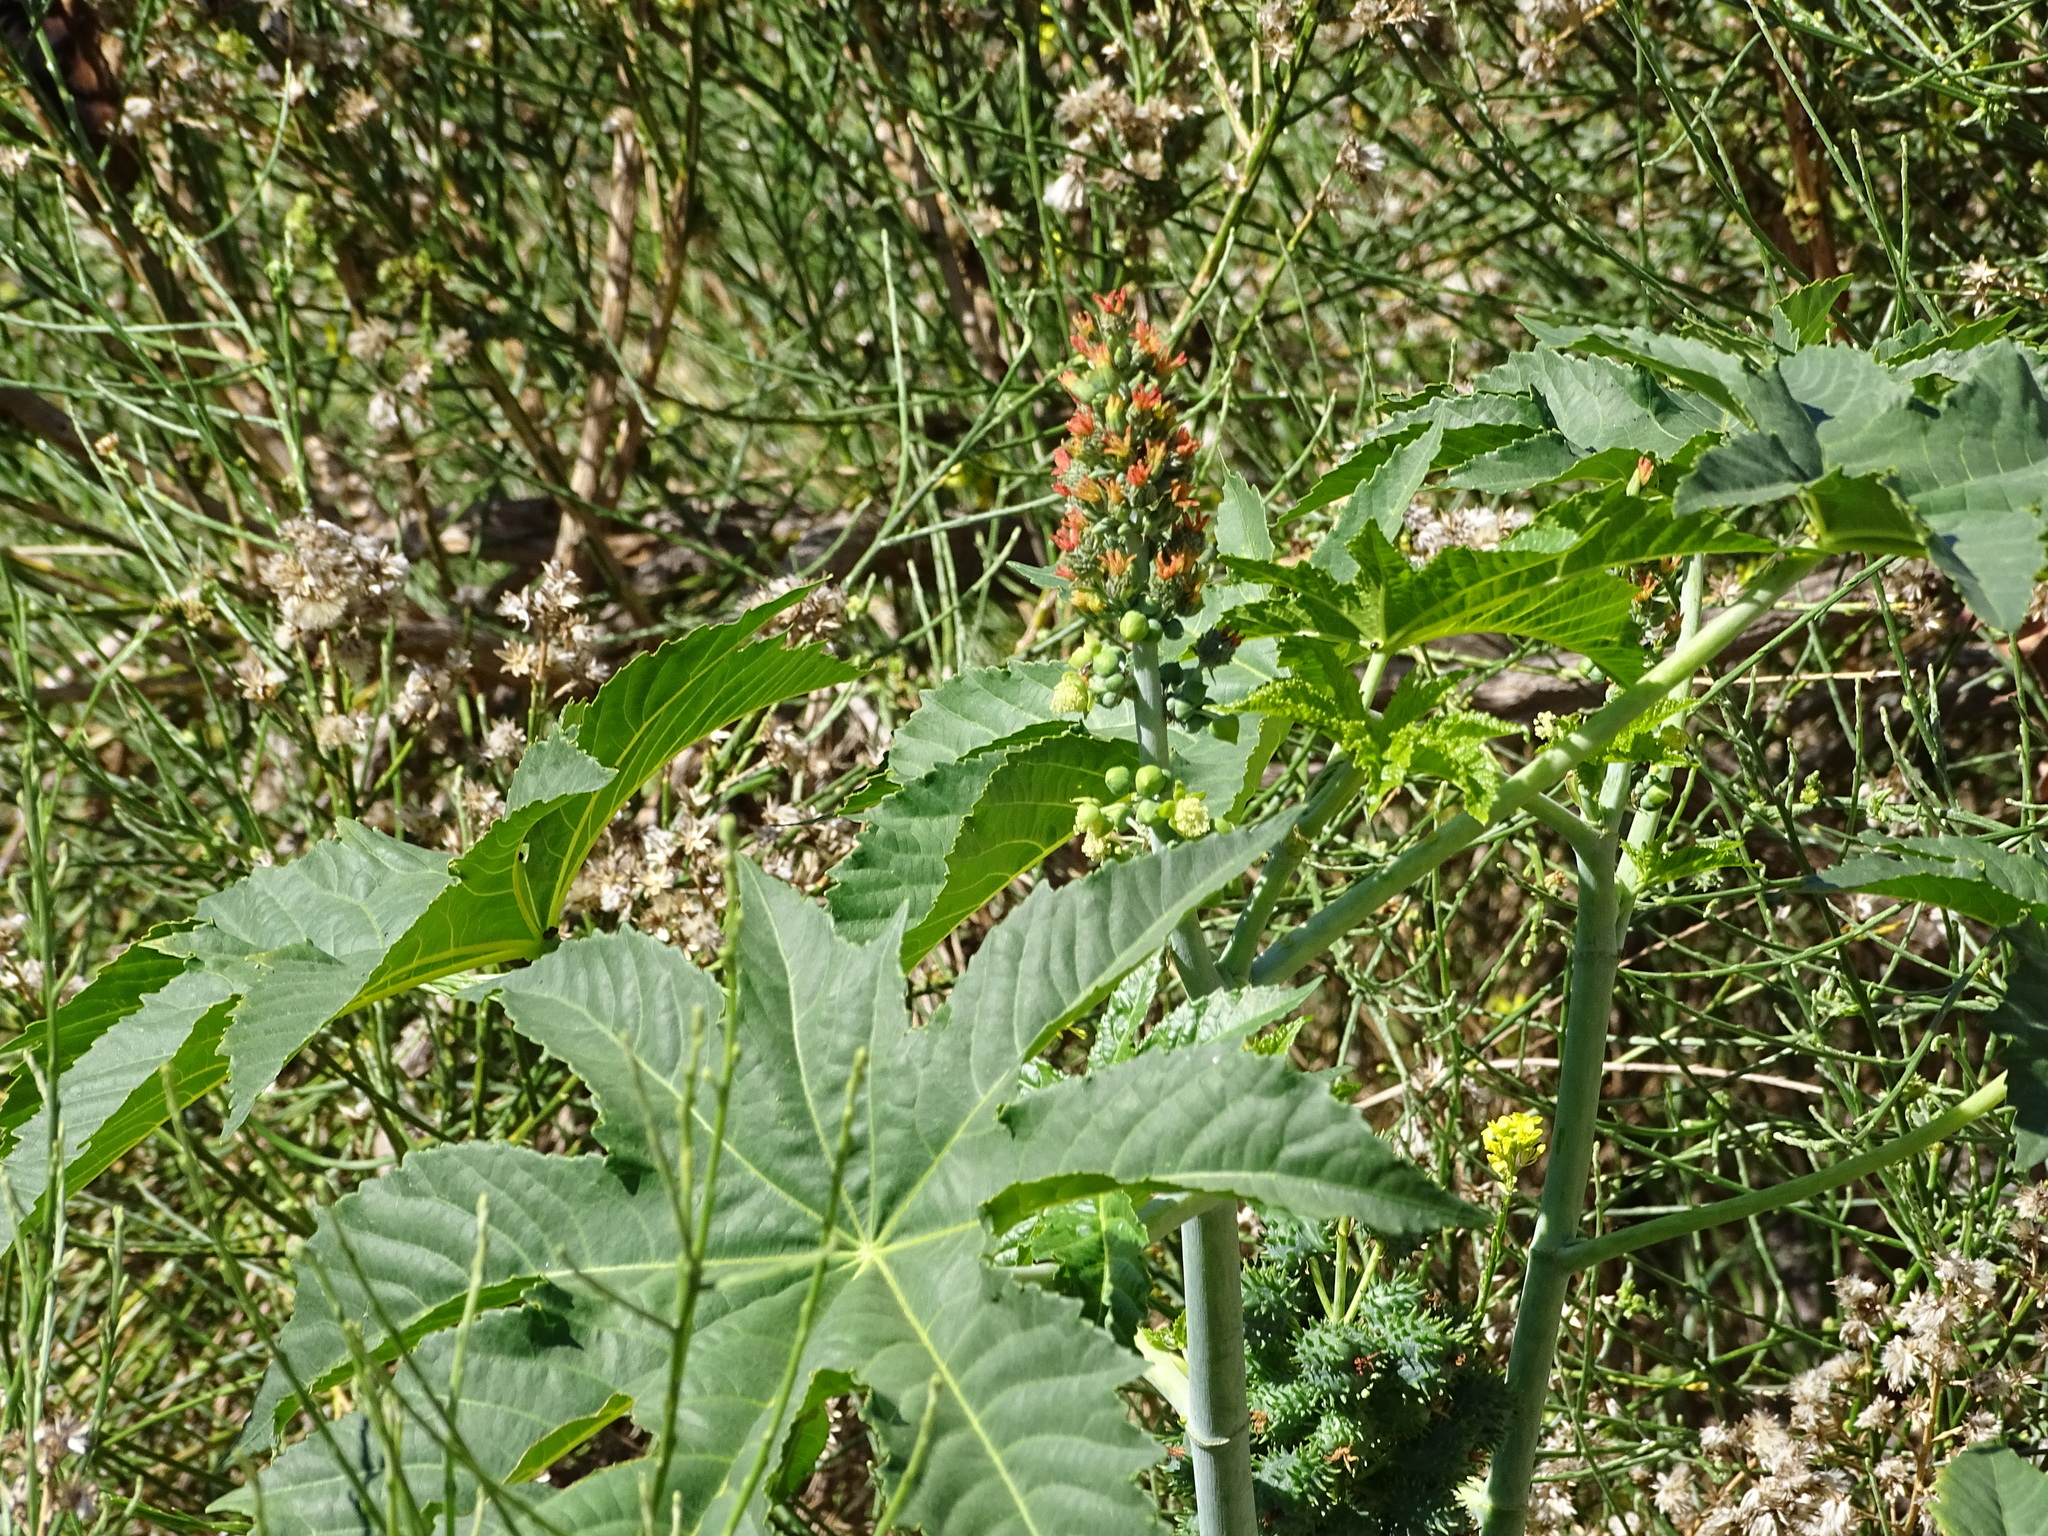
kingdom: Plantae
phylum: Tracheophyta
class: Magnoliopsida
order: Malpighiales
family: Euphorbiaceae
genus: Ricinus
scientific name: Ricinus communis
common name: Castor-oil-plant
